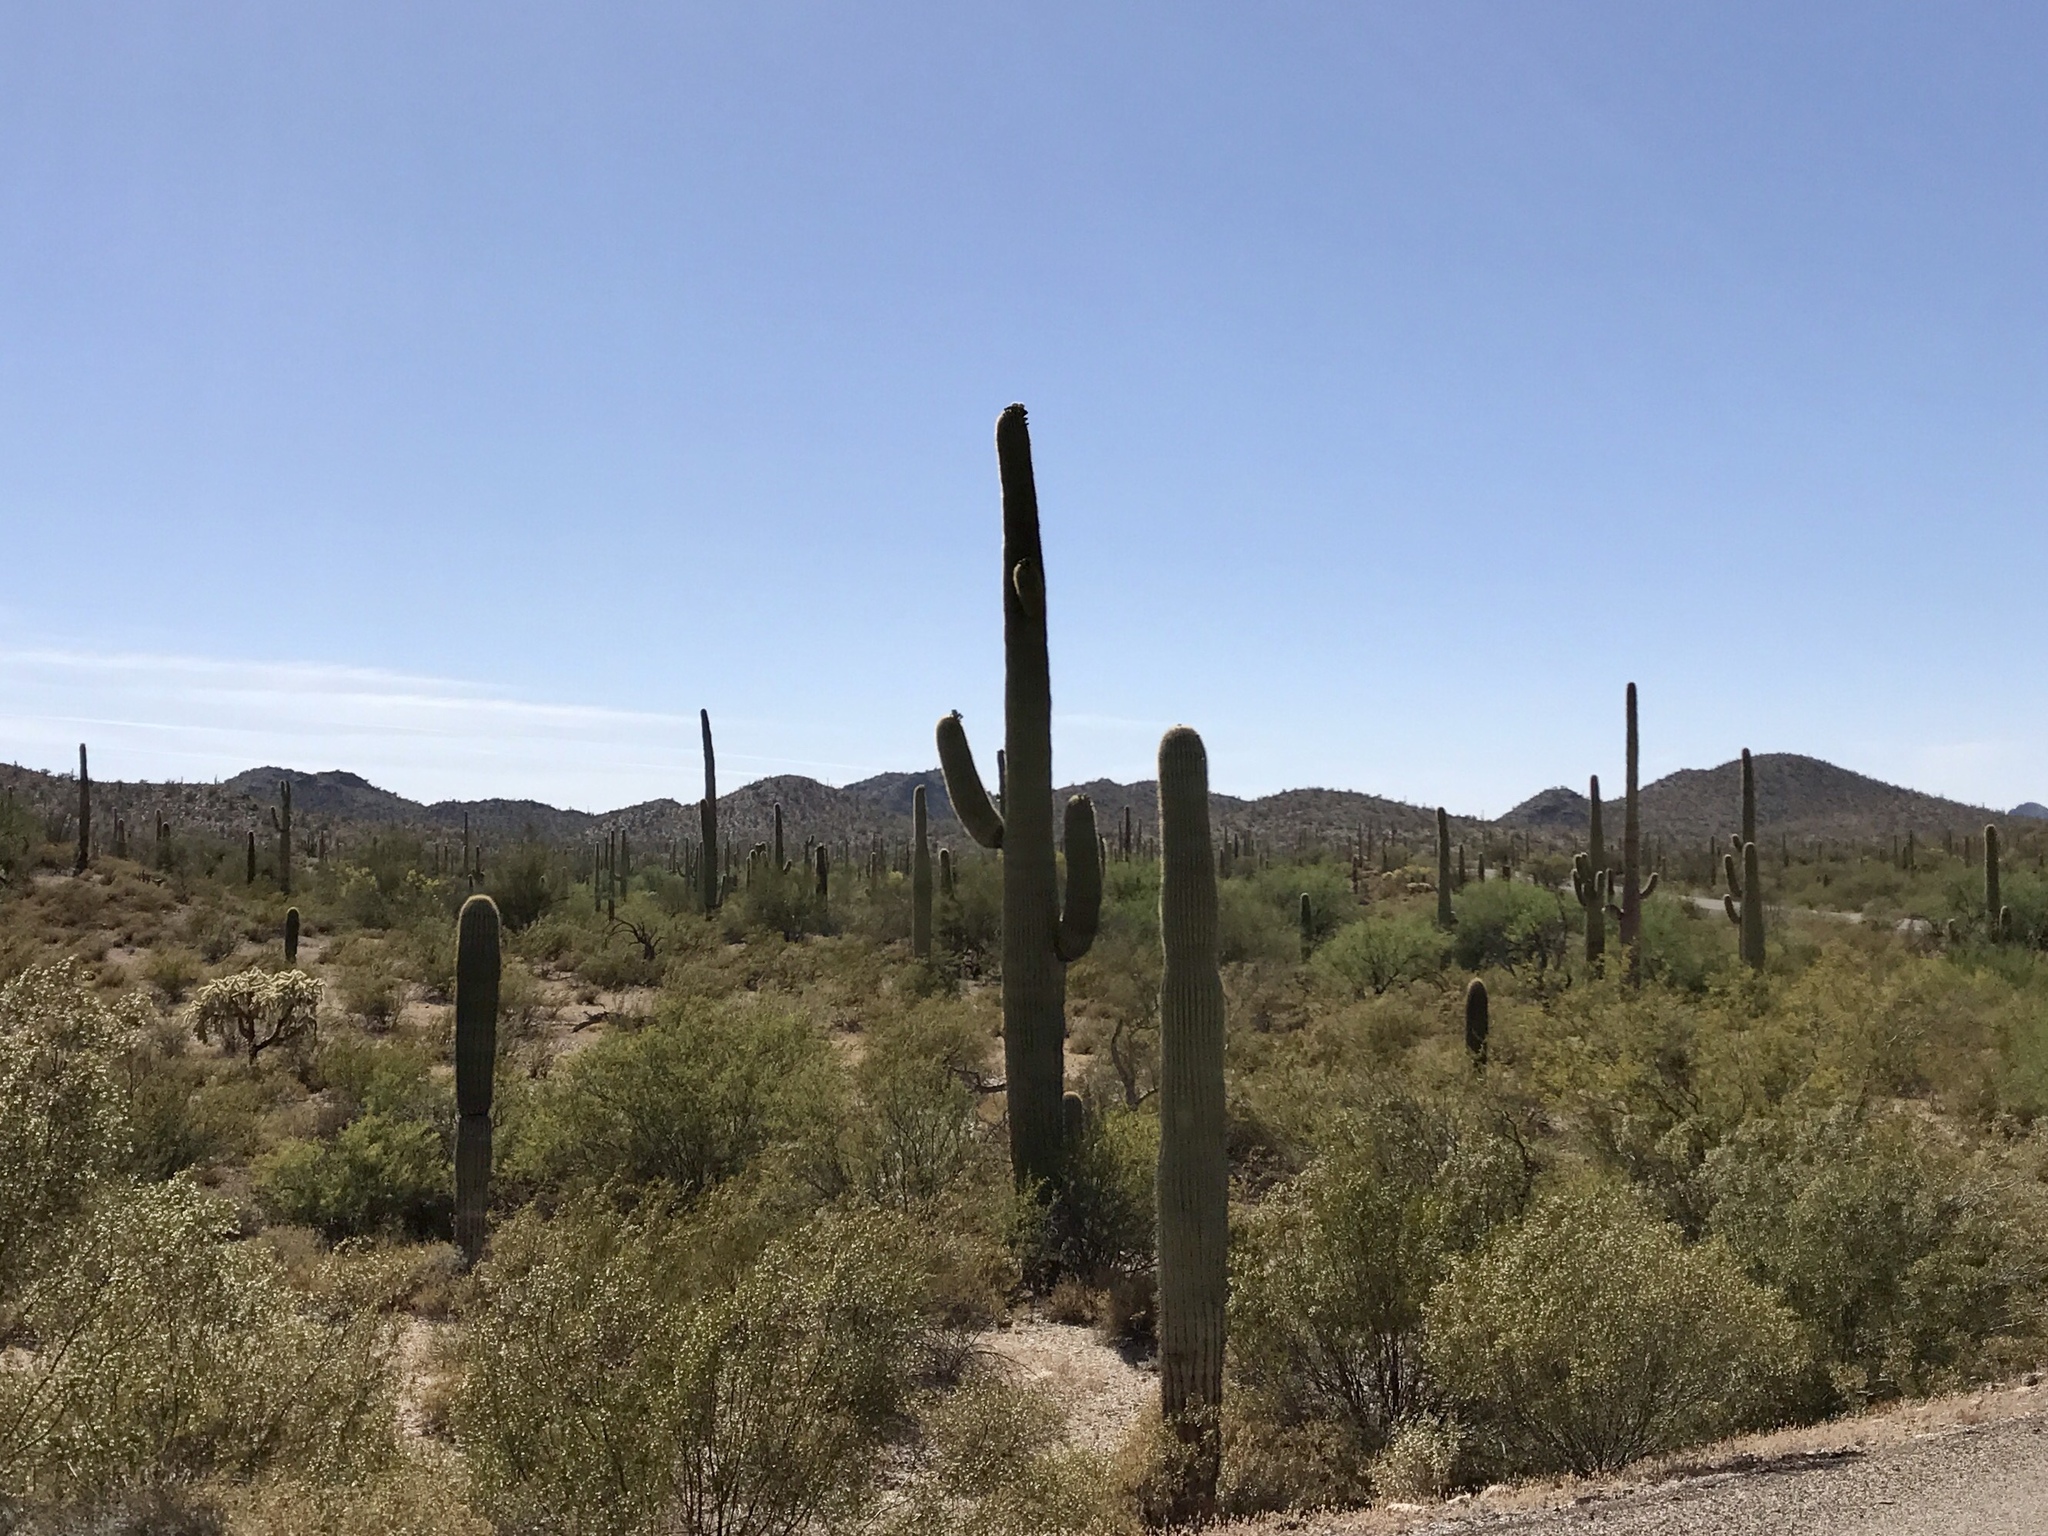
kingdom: Plantae
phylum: Tracheophyta
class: Magnoliopsida
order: Caryophyllales
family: Cactaceae
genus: Carnegiea
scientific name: Carnegiea gigantea
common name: Saguaro
